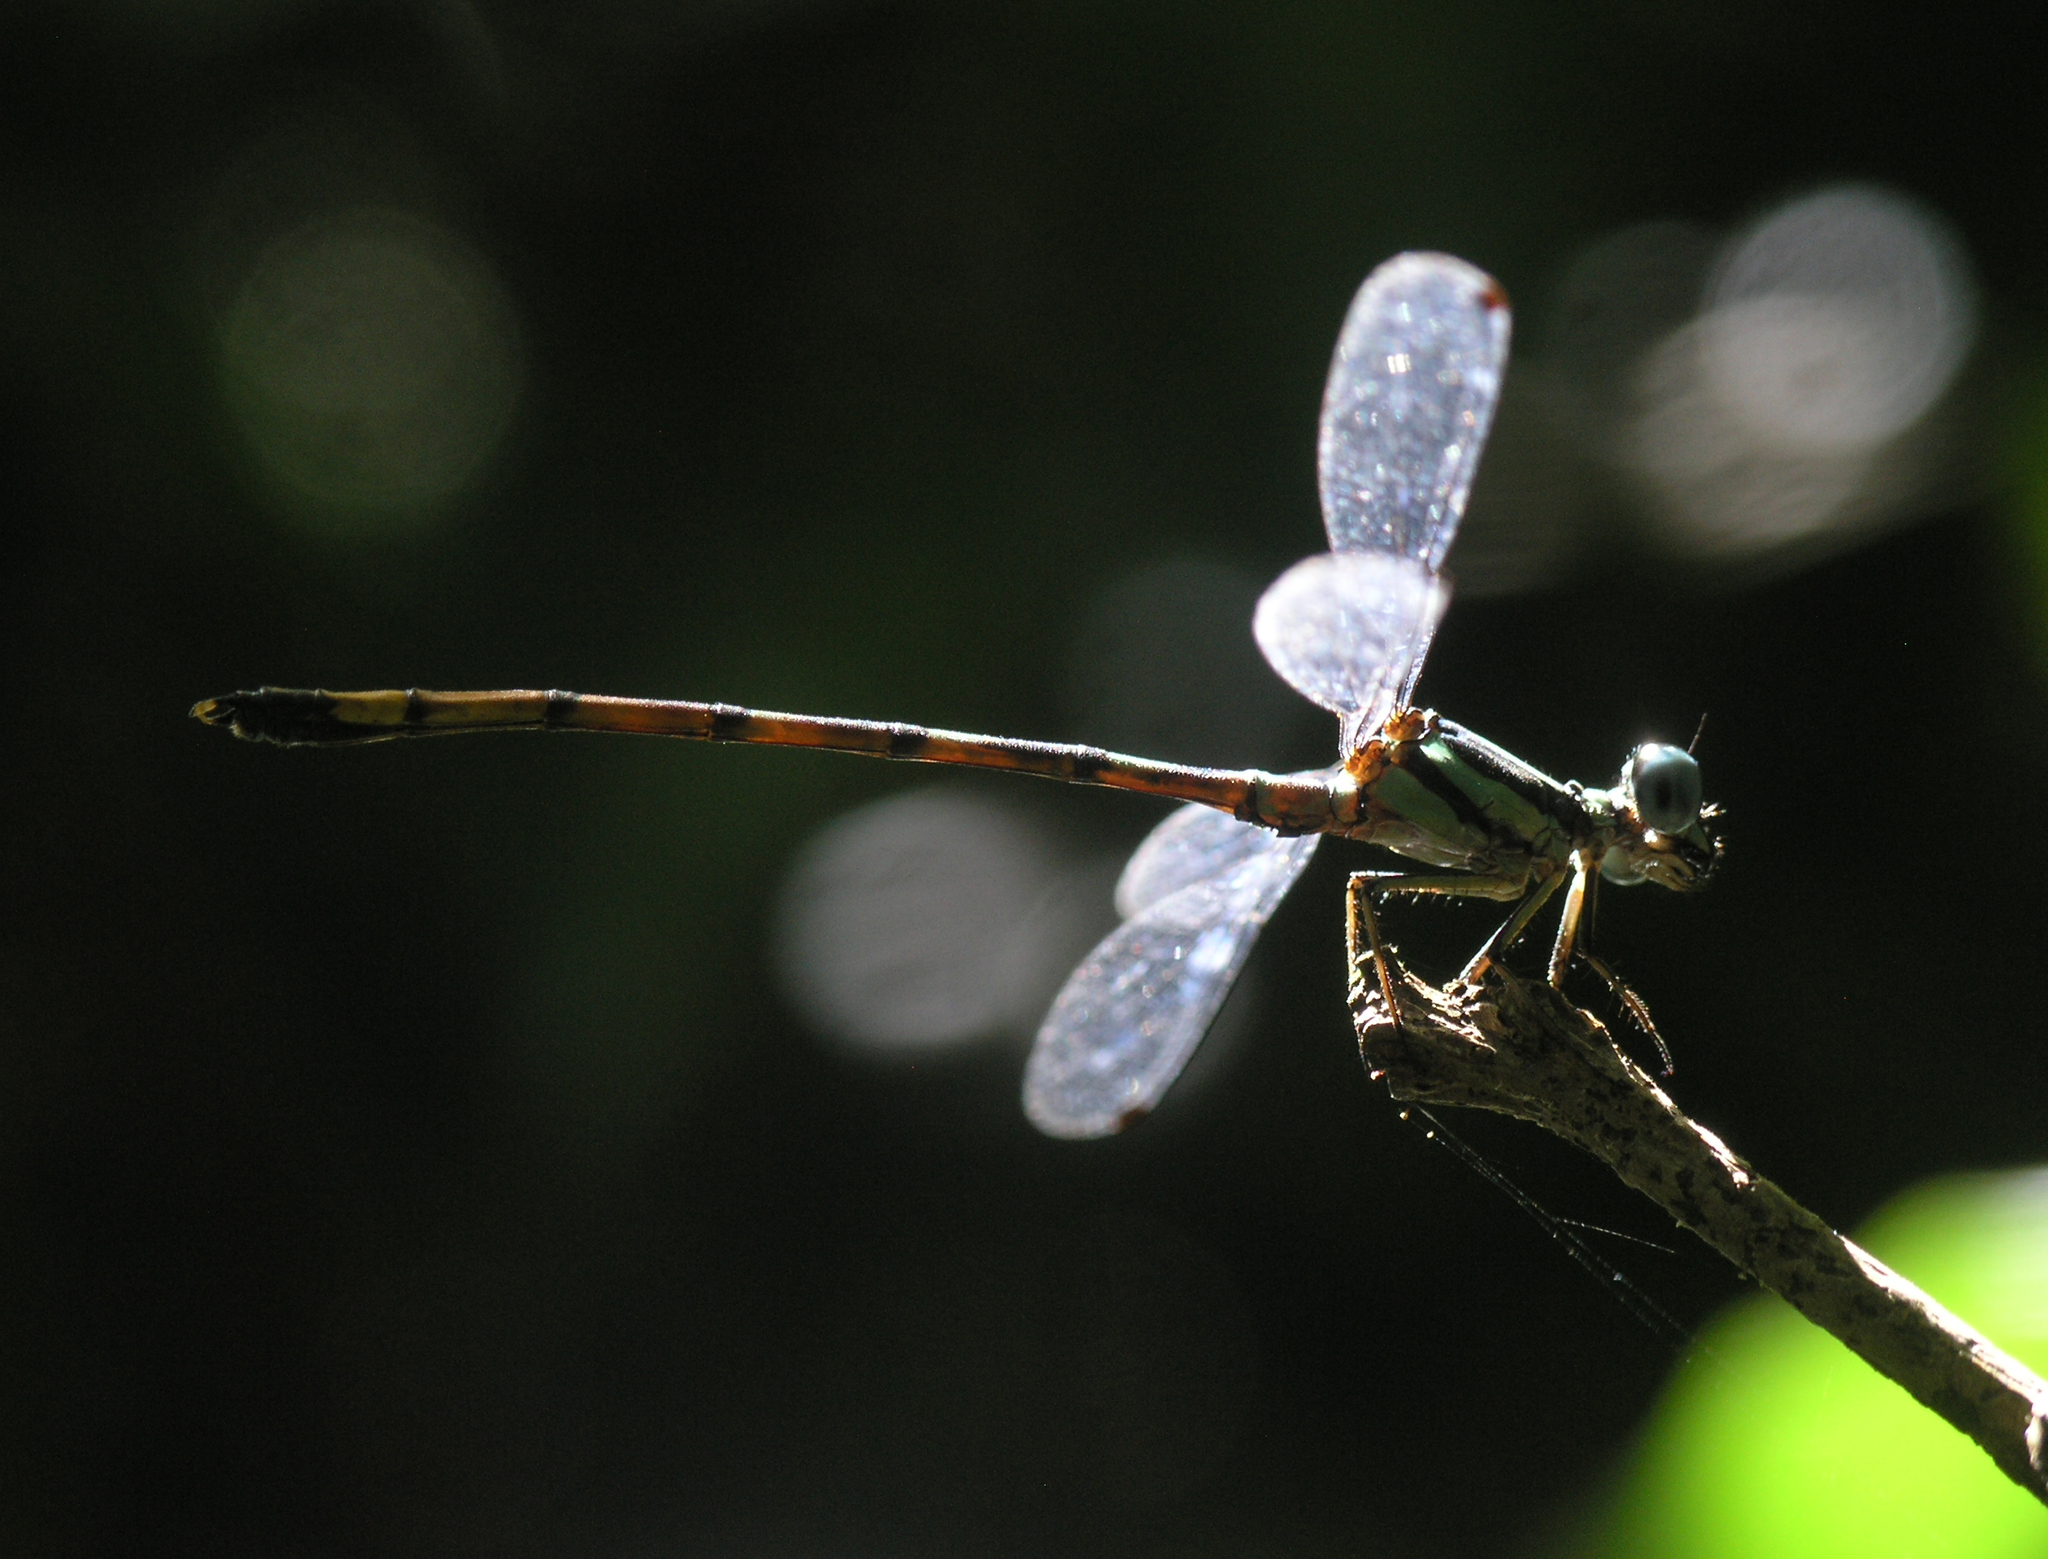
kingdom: Animalia
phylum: Arthropoda
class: Insecta
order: Odonata
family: Philosinidae
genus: Rhinagrion
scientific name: Rhinagrion viridatum
